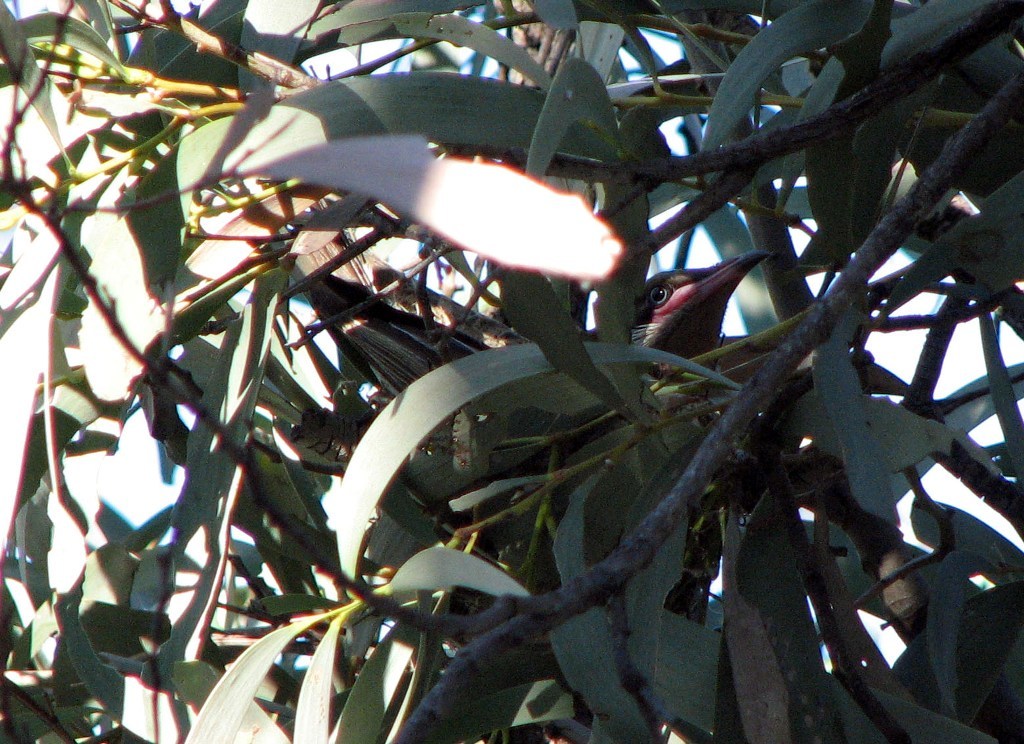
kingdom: Animalia
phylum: Chordata
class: Aves
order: Passeriformes
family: Meliphagidae
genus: Acanthagenys
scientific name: Acanthagenys rufogularis
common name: Spiny-cheeked honeyeater
